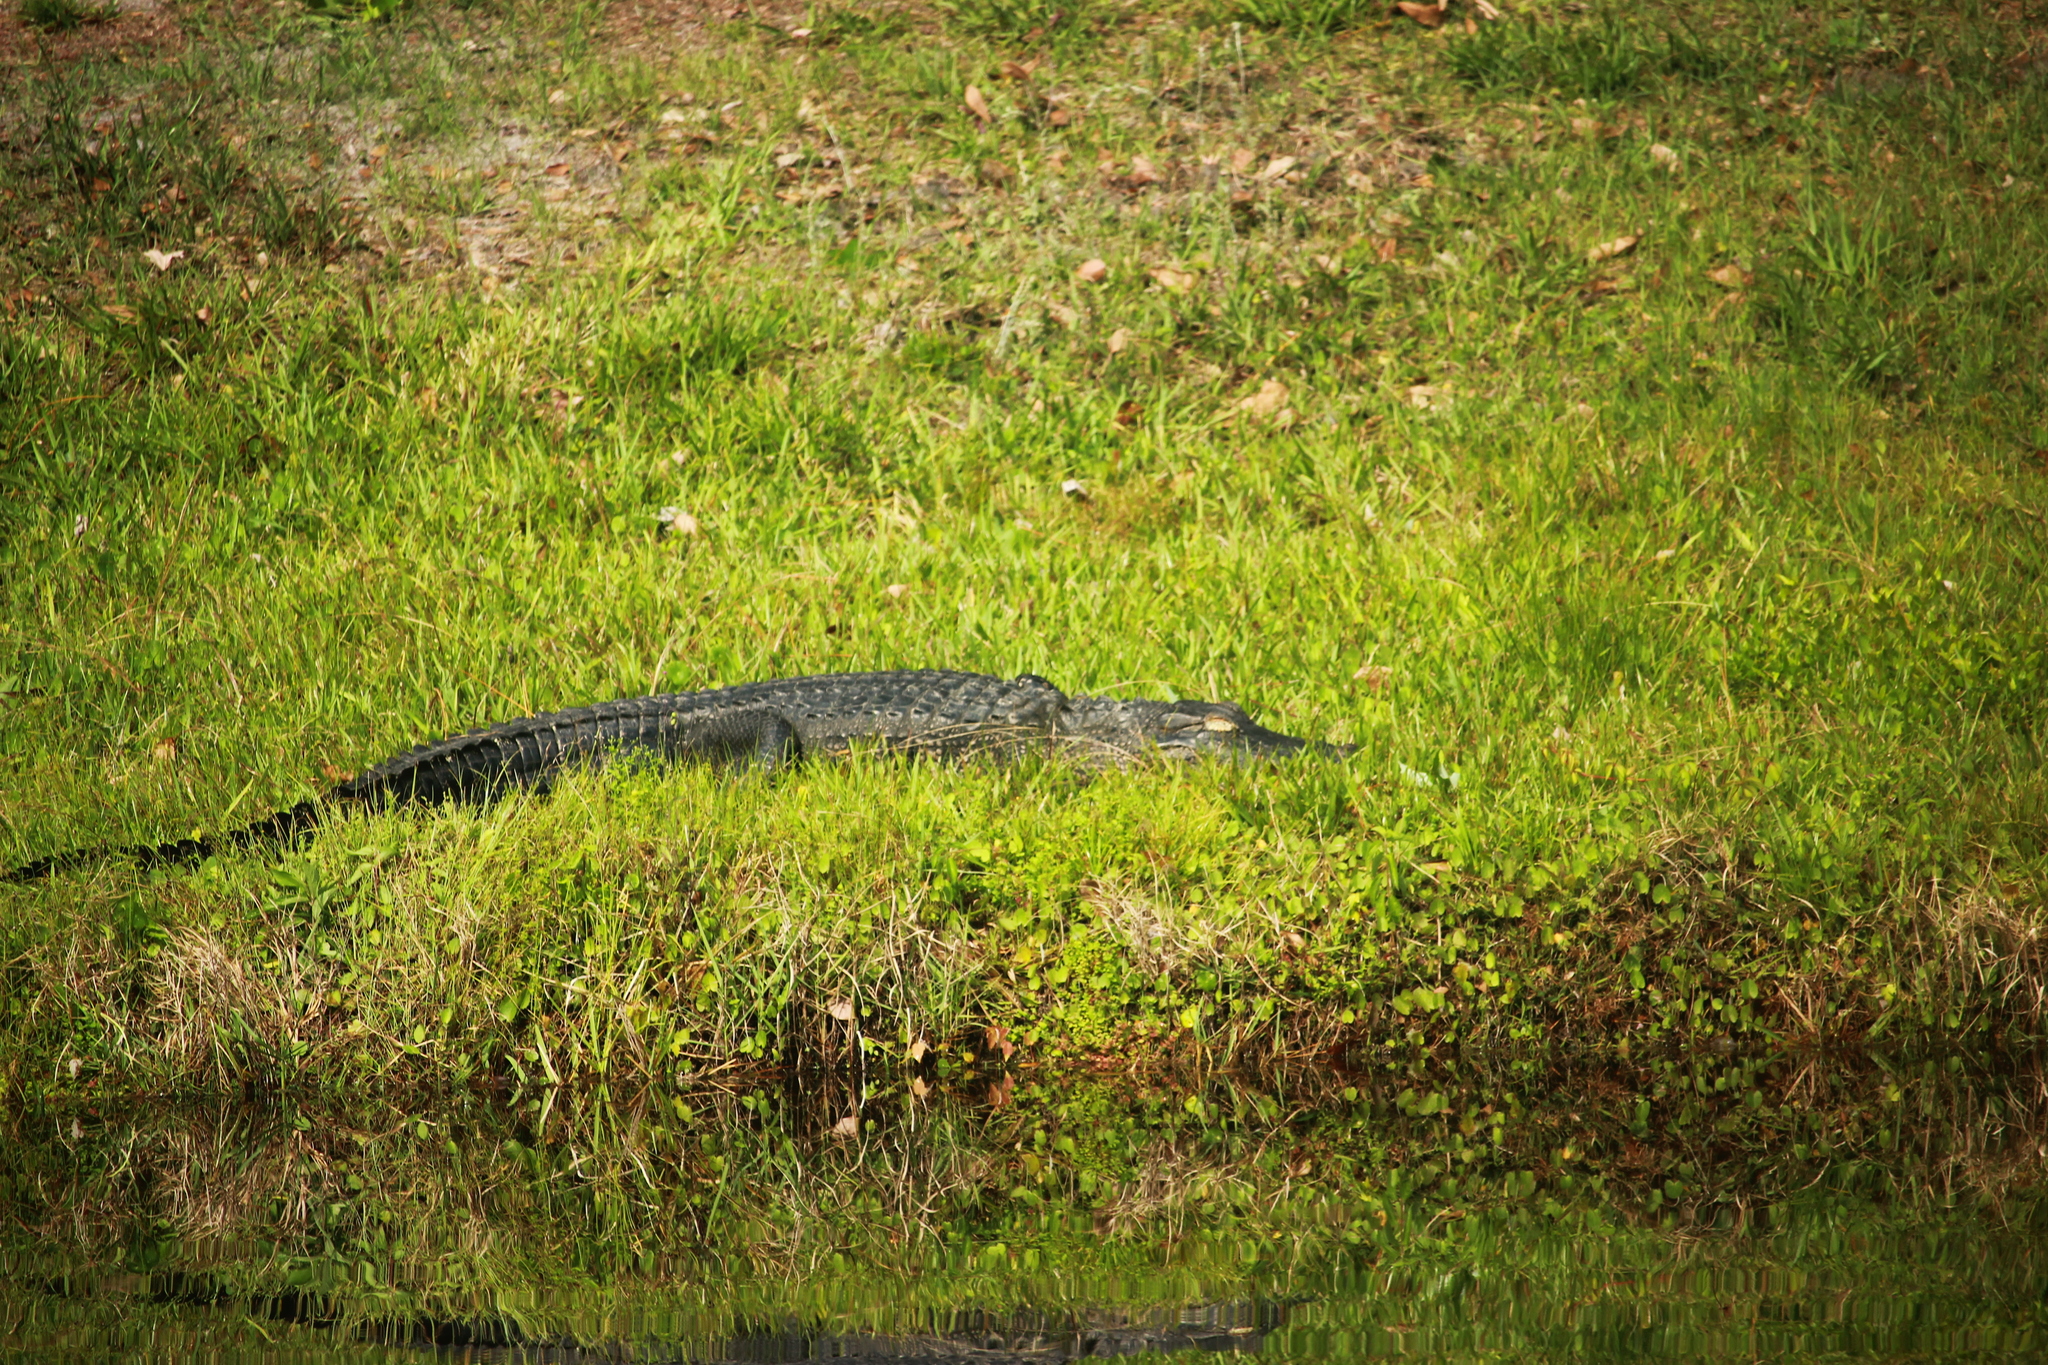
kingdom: Animalia
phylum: Chordata
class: Crocodylia
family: Alligatoridae
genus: Alligator
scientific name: Alligator mississippiensis
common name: American alligator
